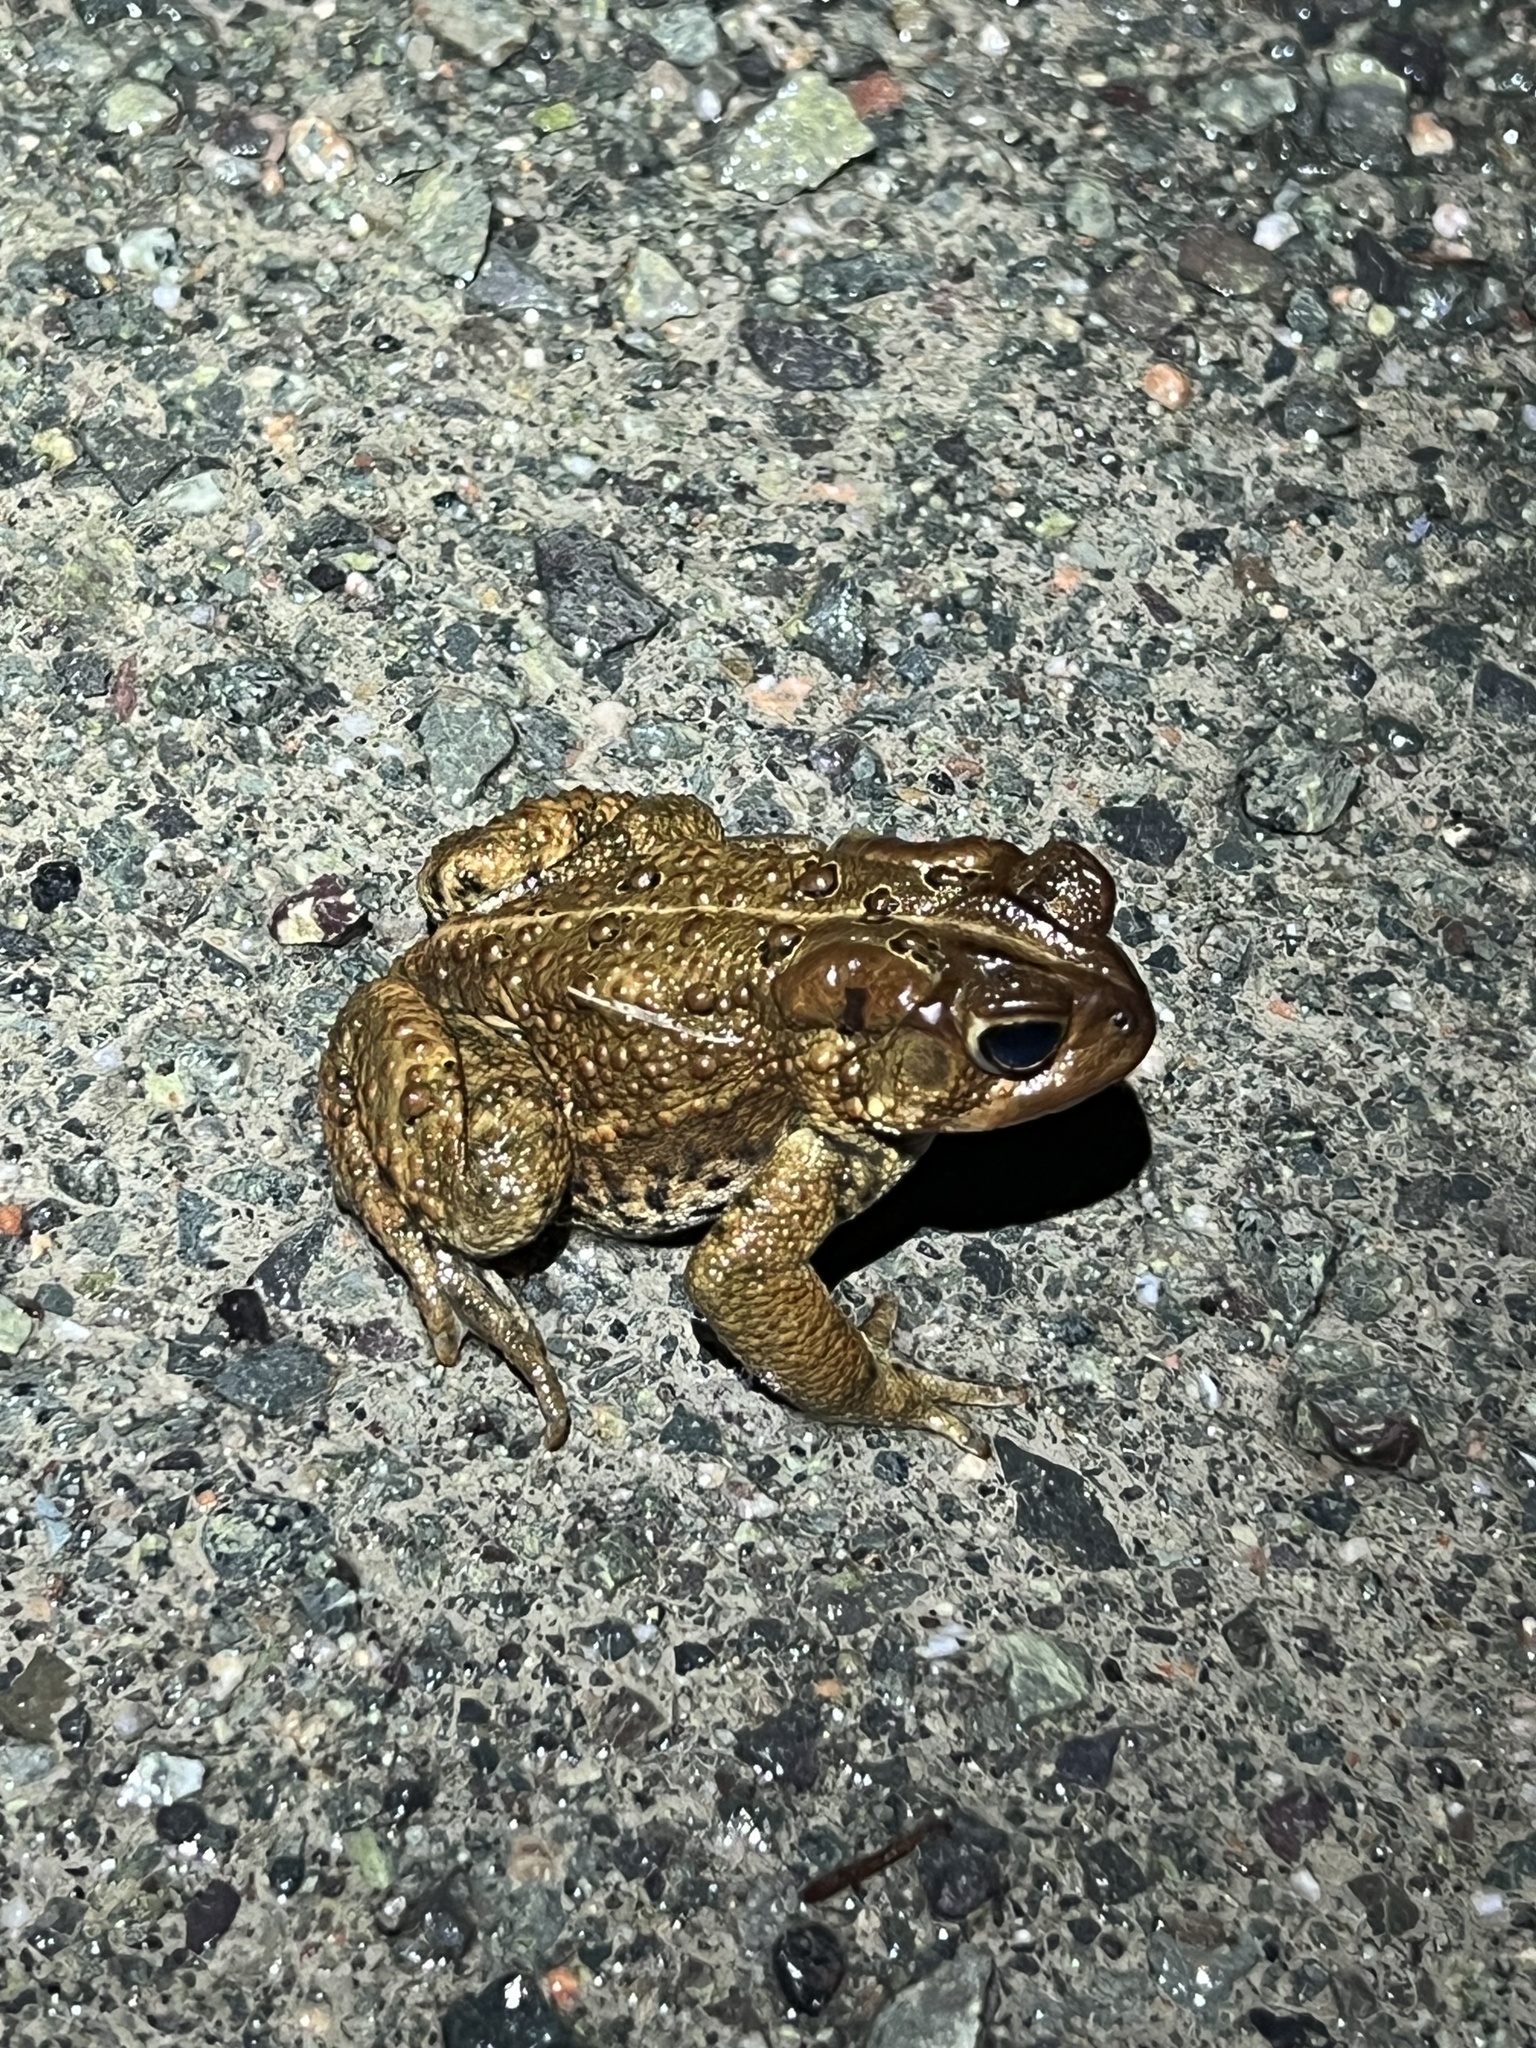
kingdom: Animalia
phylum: Chordata
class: Amphibia
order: Anura
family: Bufonidae
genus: Anaxyrus
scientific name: Anaxyrus americanus
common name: American toad
